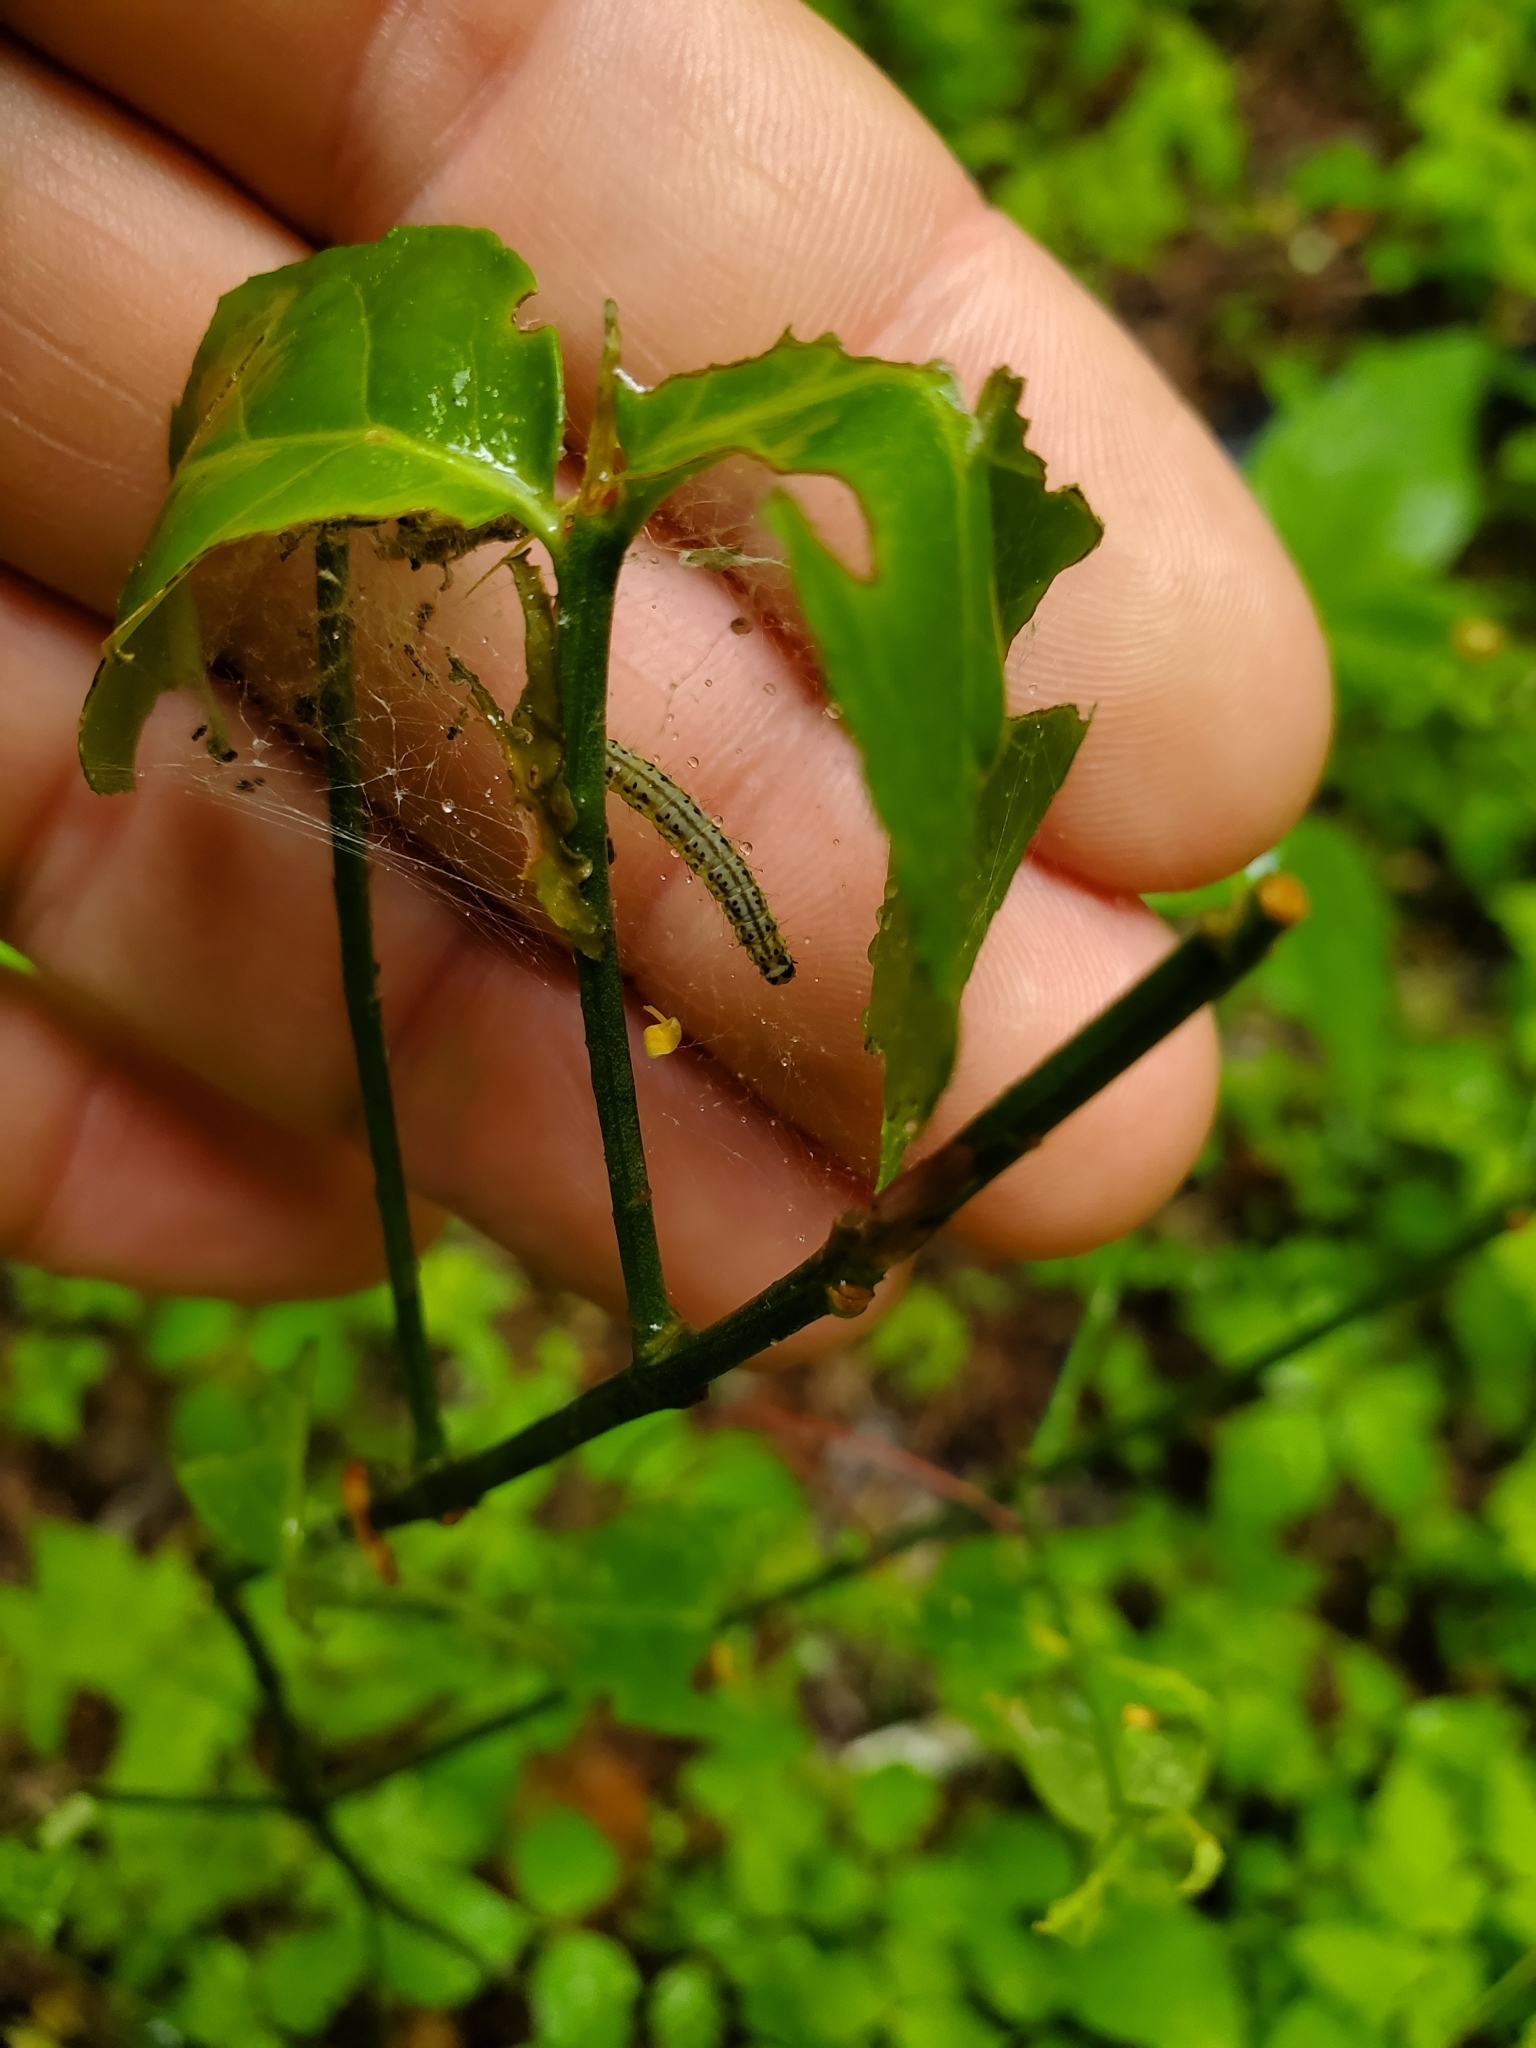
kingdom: Animalia
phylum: Arthropoda
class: Insecta
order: Lepidoptera
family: Yponomeutidae
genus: Yponomeuta
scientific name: Yponomeuta multipunctella
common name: American ermine moth
